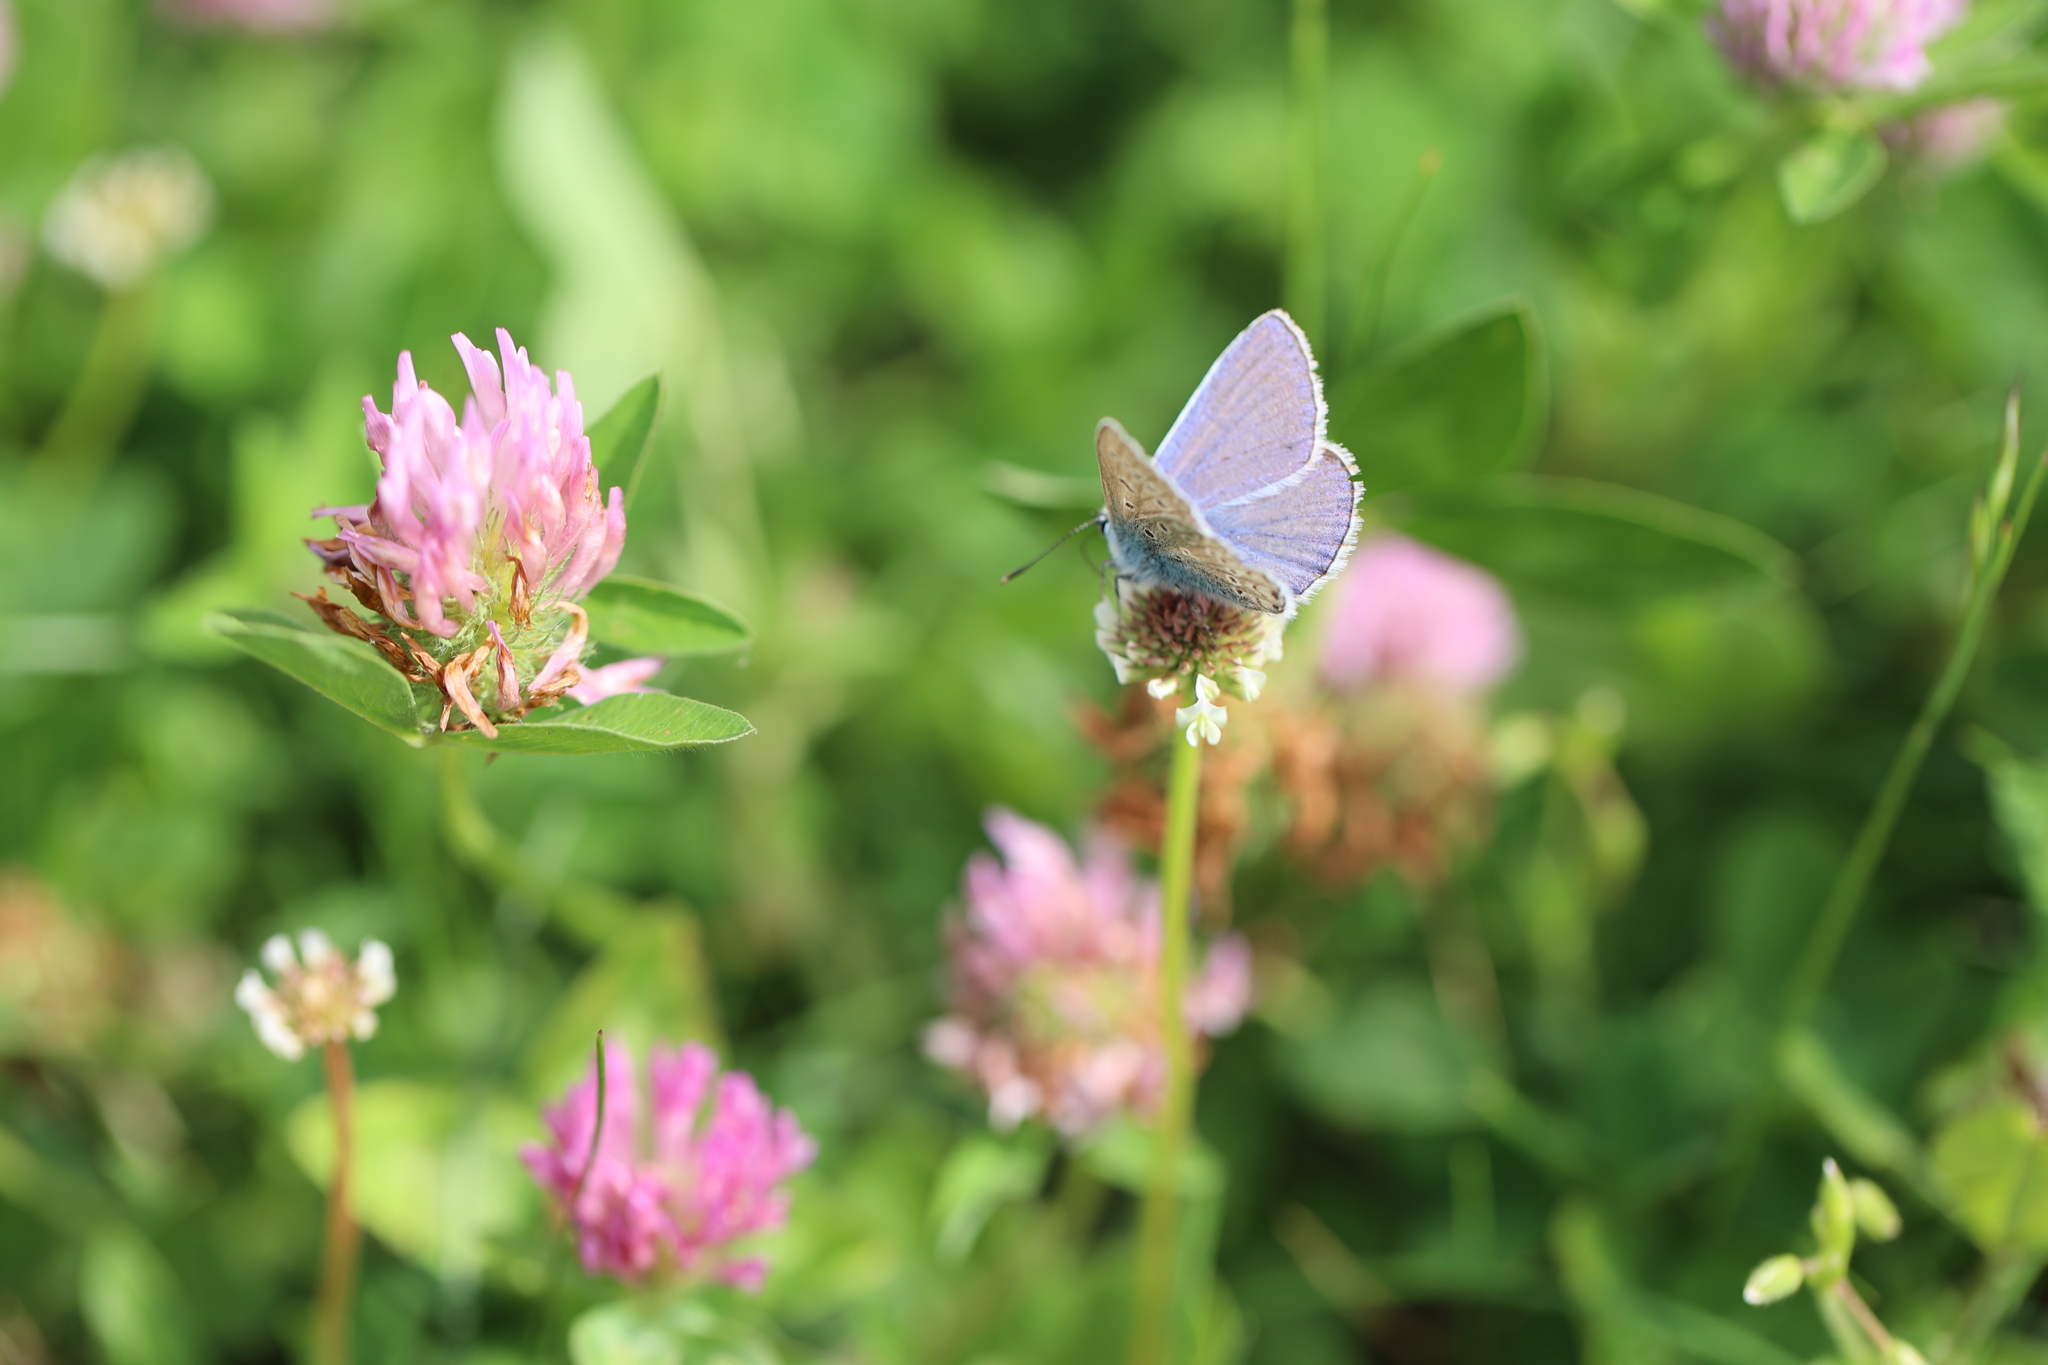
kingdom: Animalia
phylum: Arthropoda
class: Insecta
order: Lepidoptera
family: Lycaenidae
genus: Polyommatus
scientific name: Polyommatus icarus
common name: Common blue
